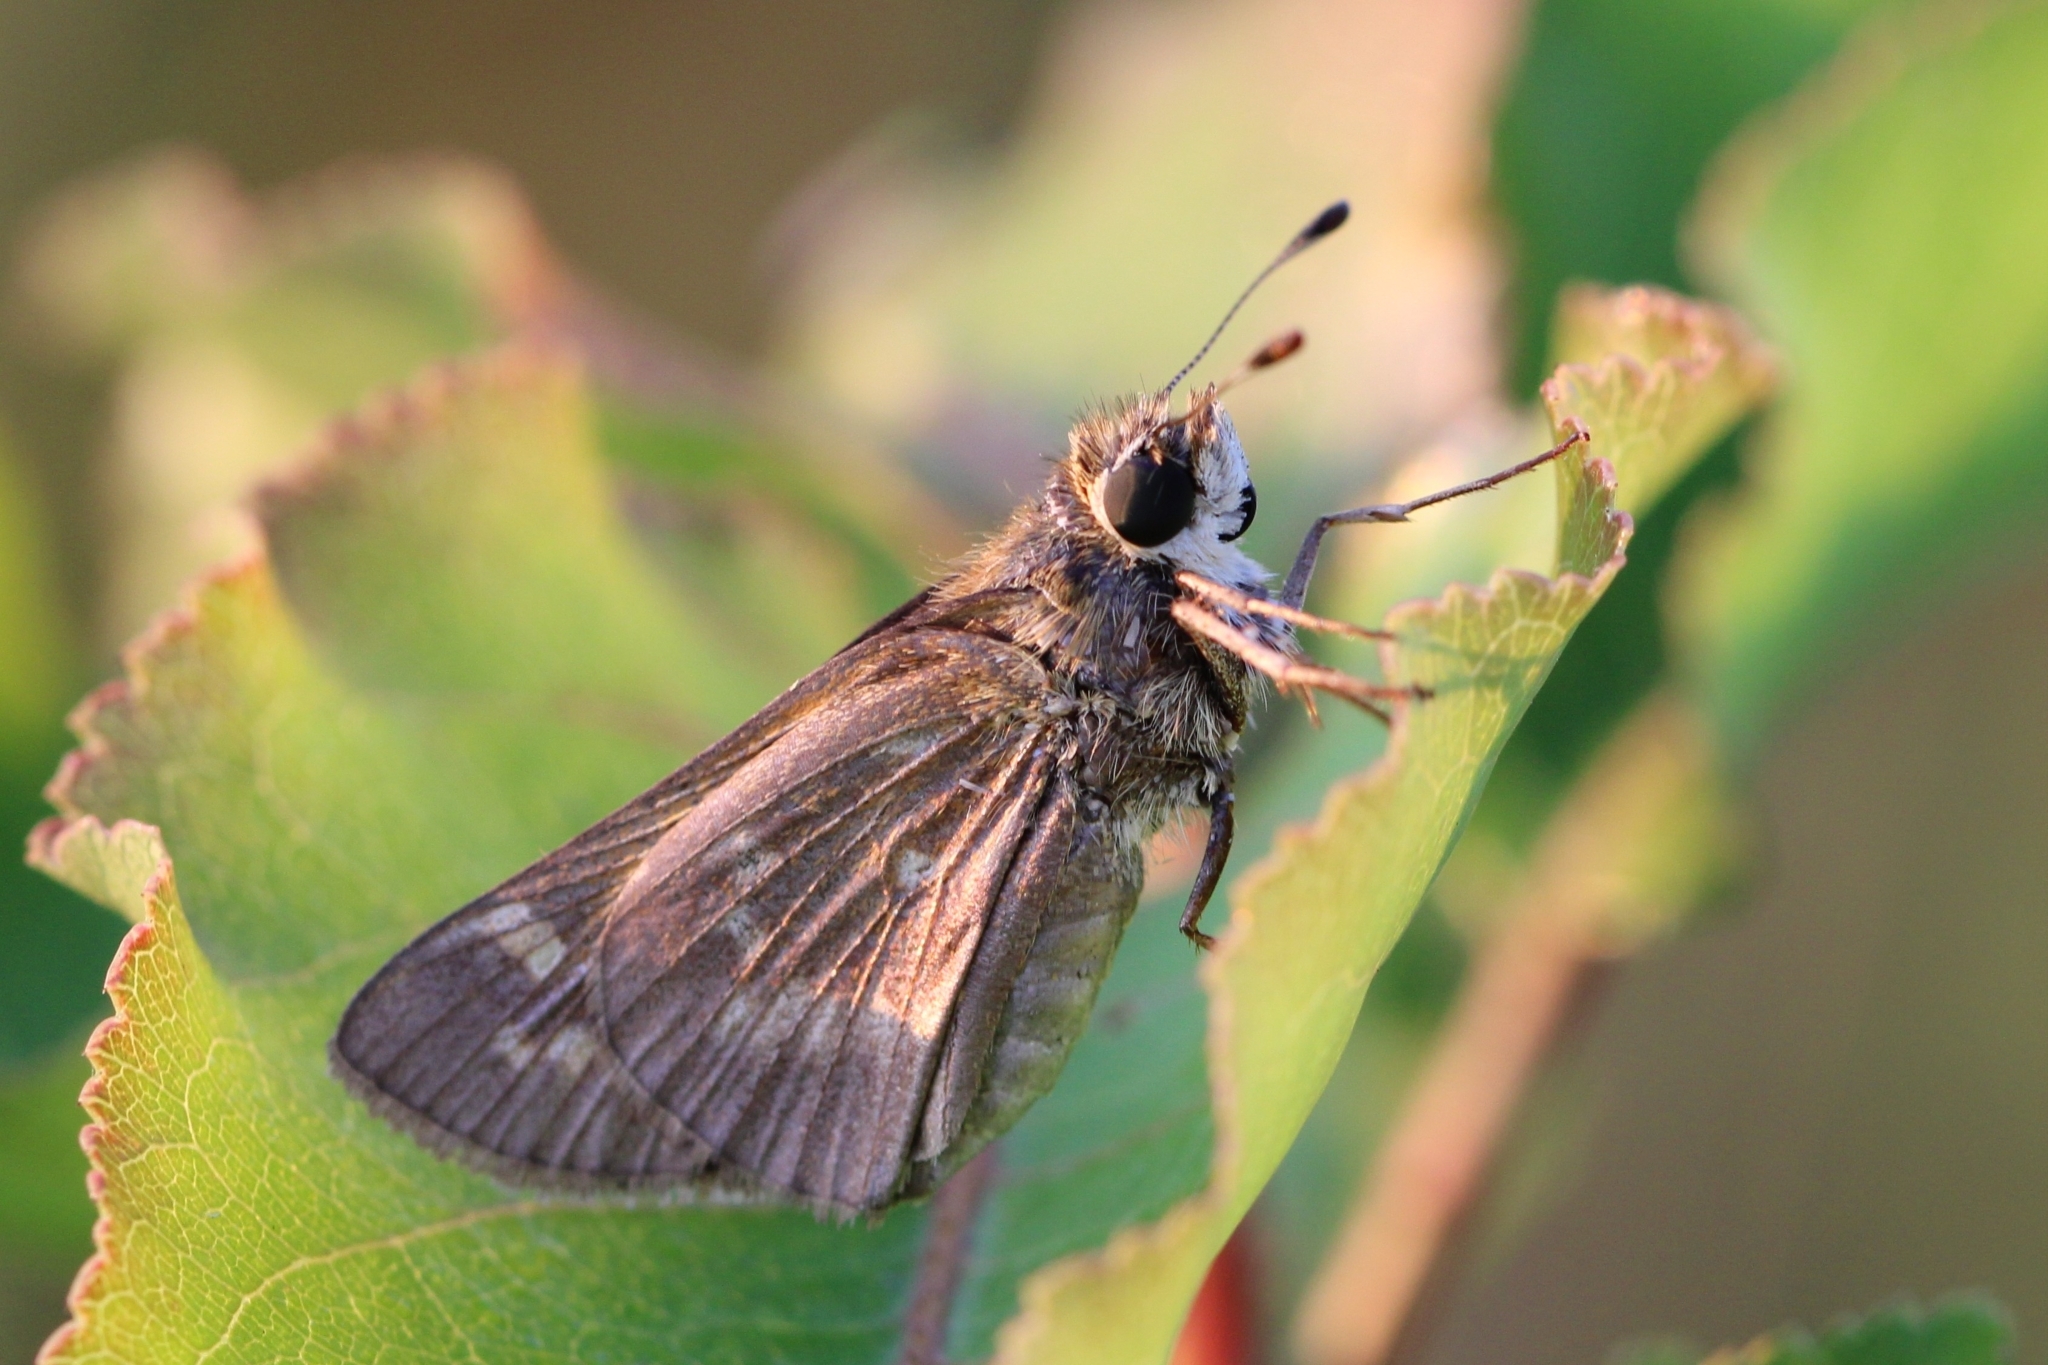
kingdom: Animalia
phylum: Arthropoda
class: Insecta
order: Lepidoptera
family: Hesperiidae
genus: Atalopedes
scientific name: Atalopedes
